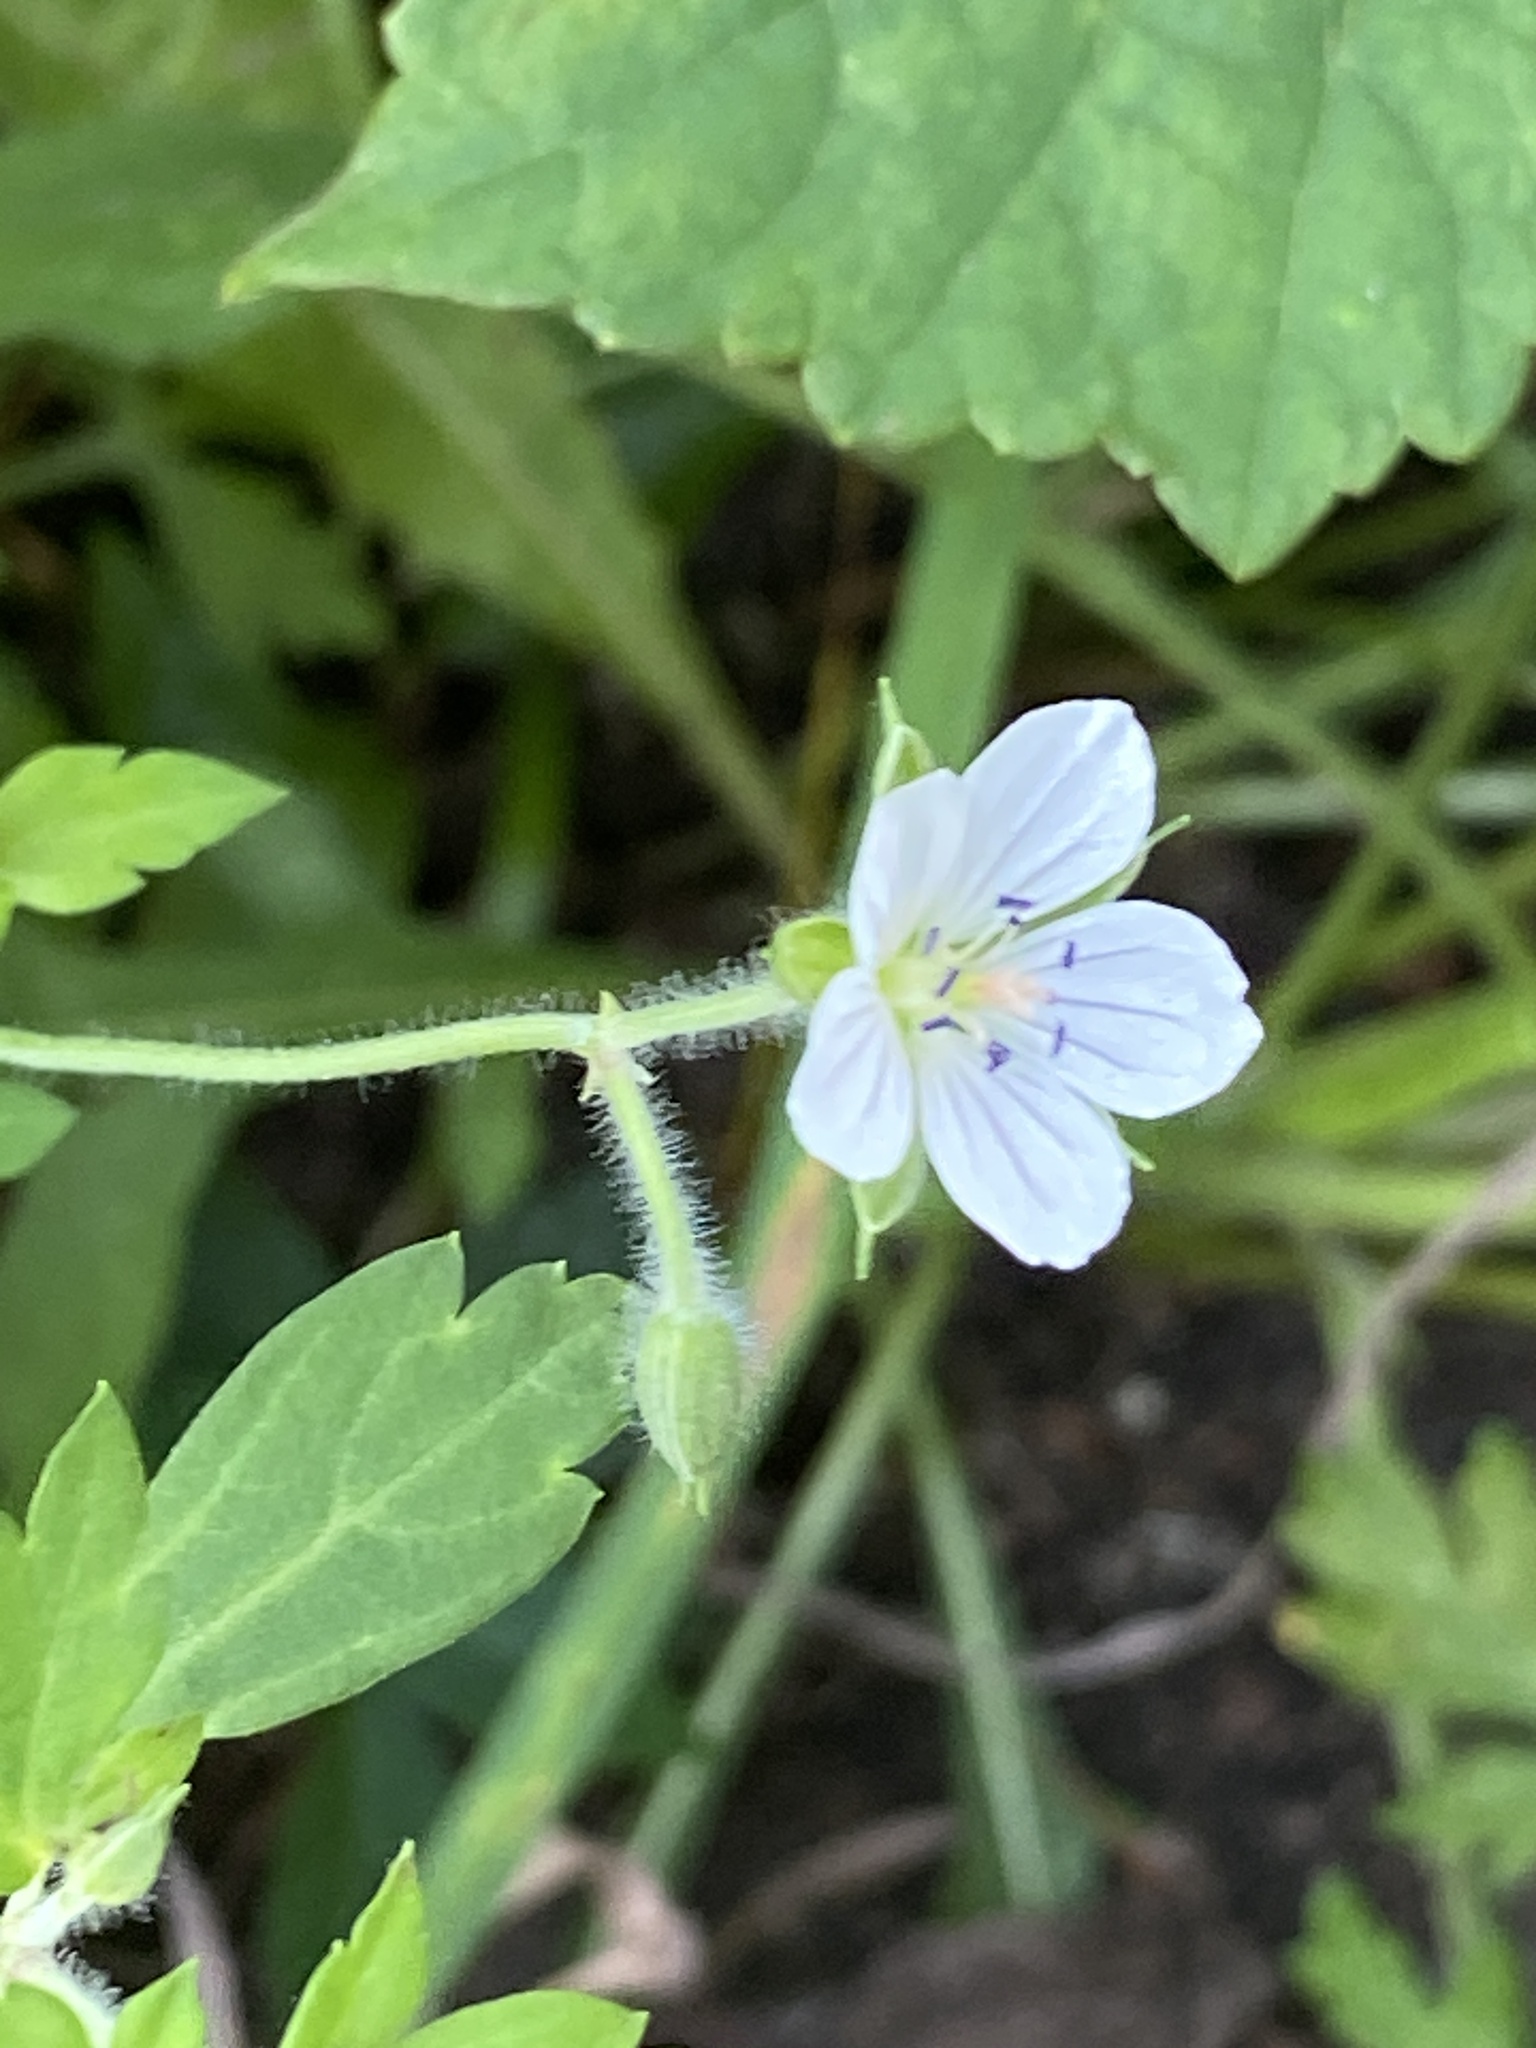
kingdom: Plantae
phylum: Tracheophyta
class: Magnoliopsida
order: Geraniales
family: Geraniaceae
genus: Geranium
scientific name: Geranium thunbergii
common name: Dewdrop crane's-bill
